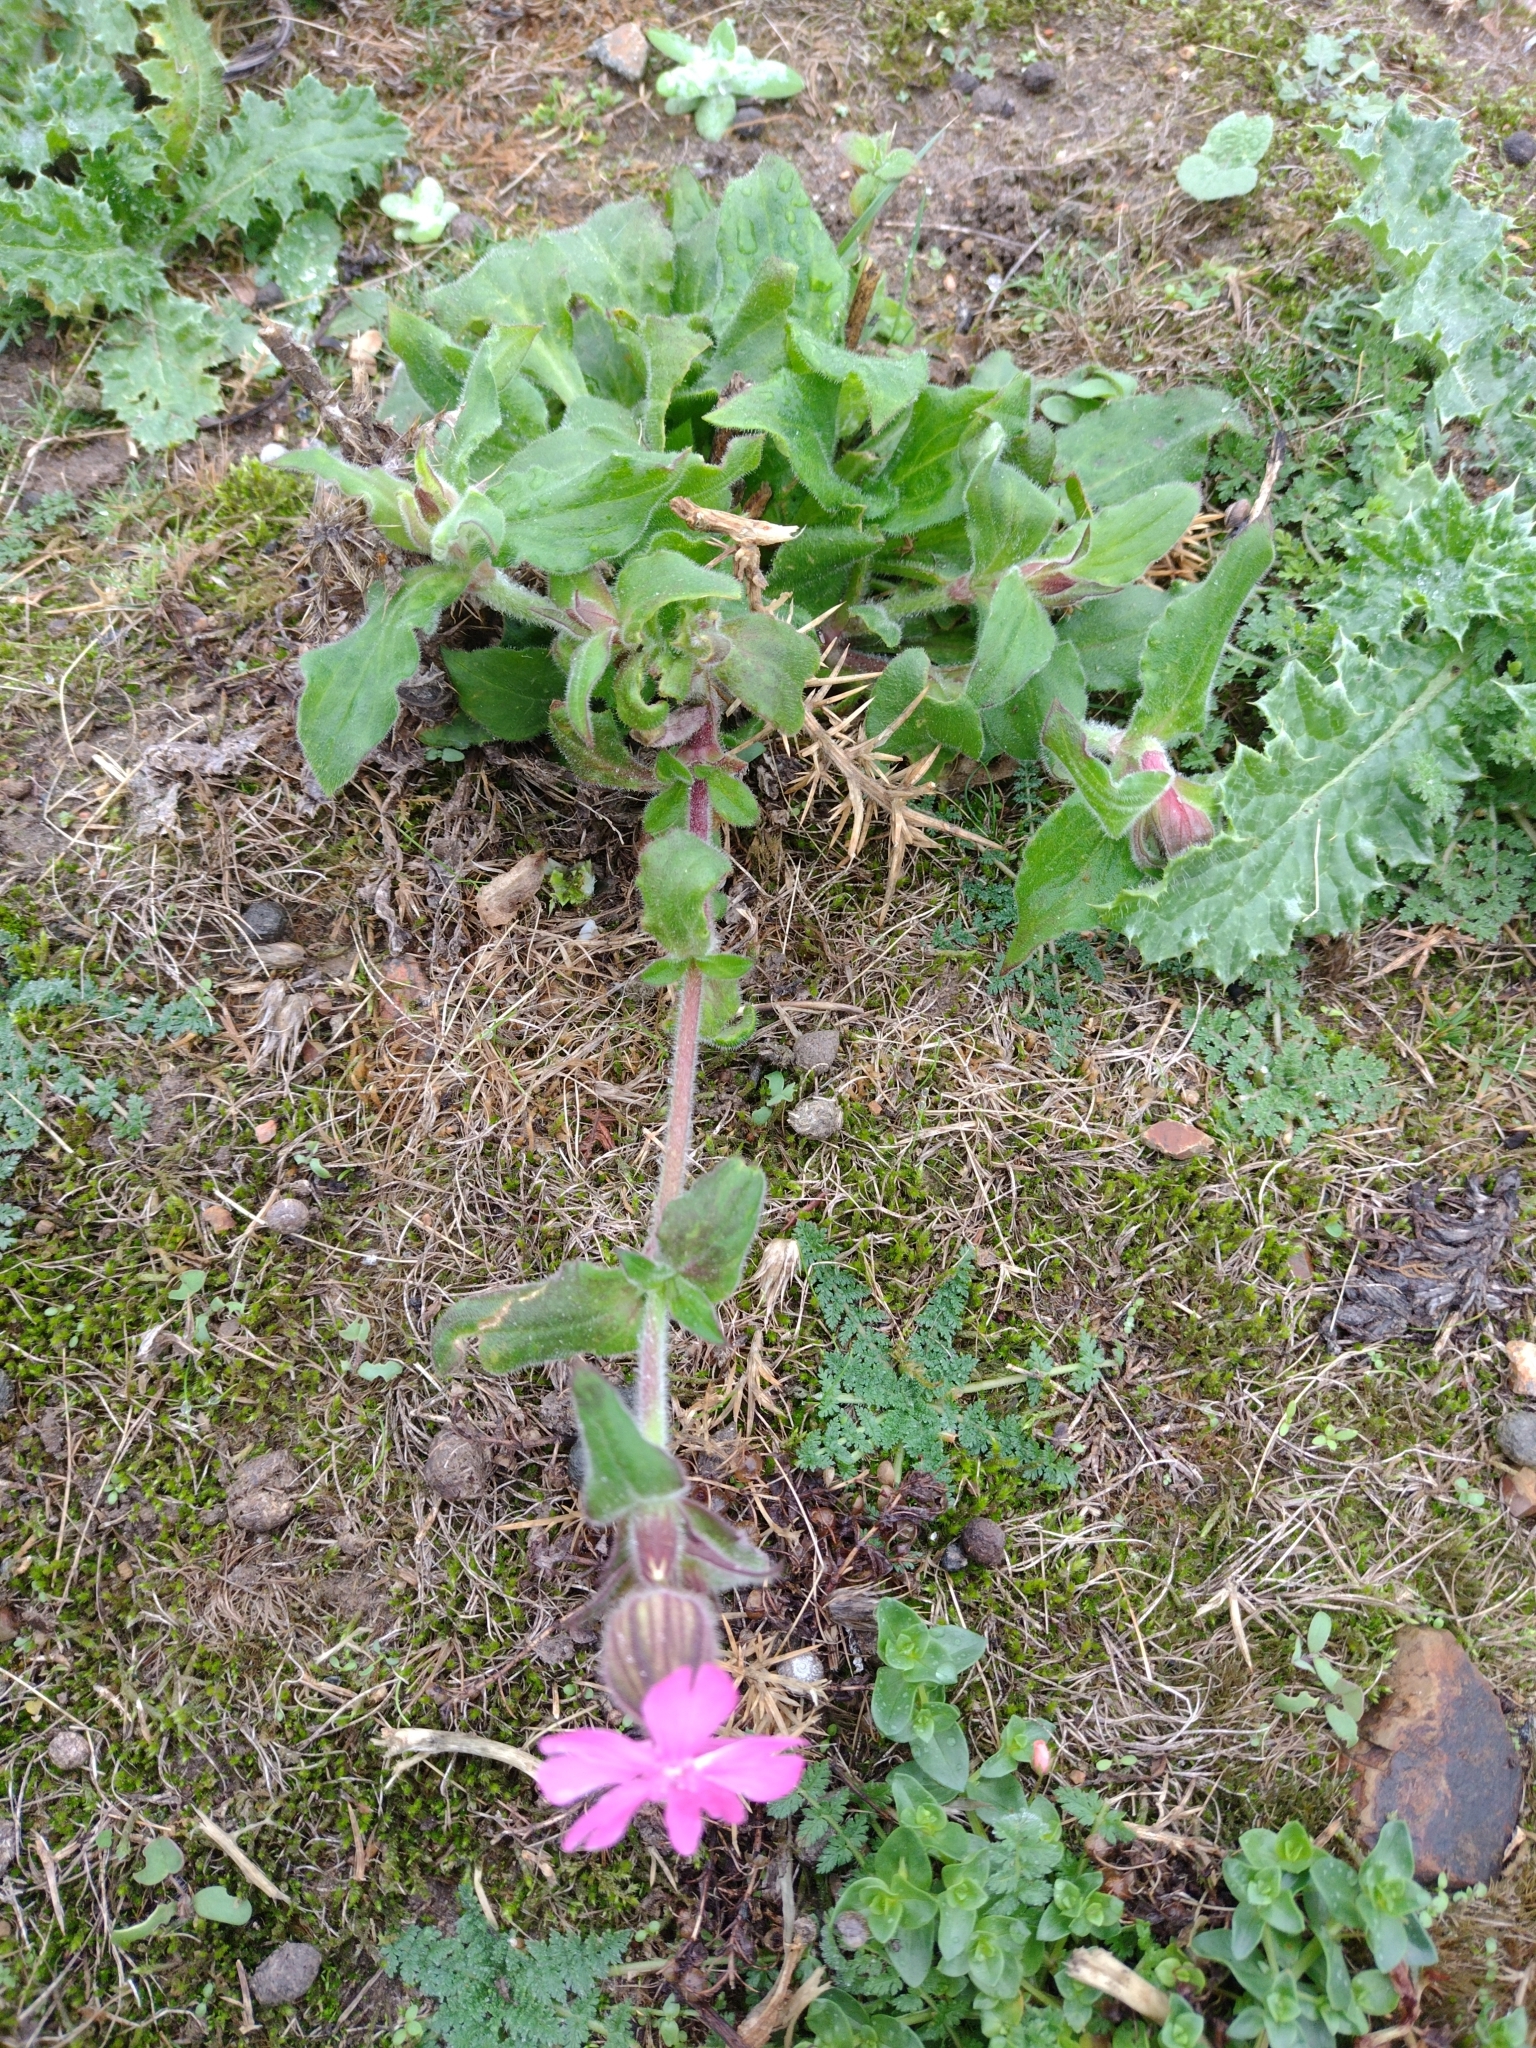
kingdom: Plantae
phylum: Tracheophyta
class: Magnoliopsida
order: Caryophyllales
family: Caryophyllaceae
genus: Silene
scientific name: Silene dioica
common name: Red campion
